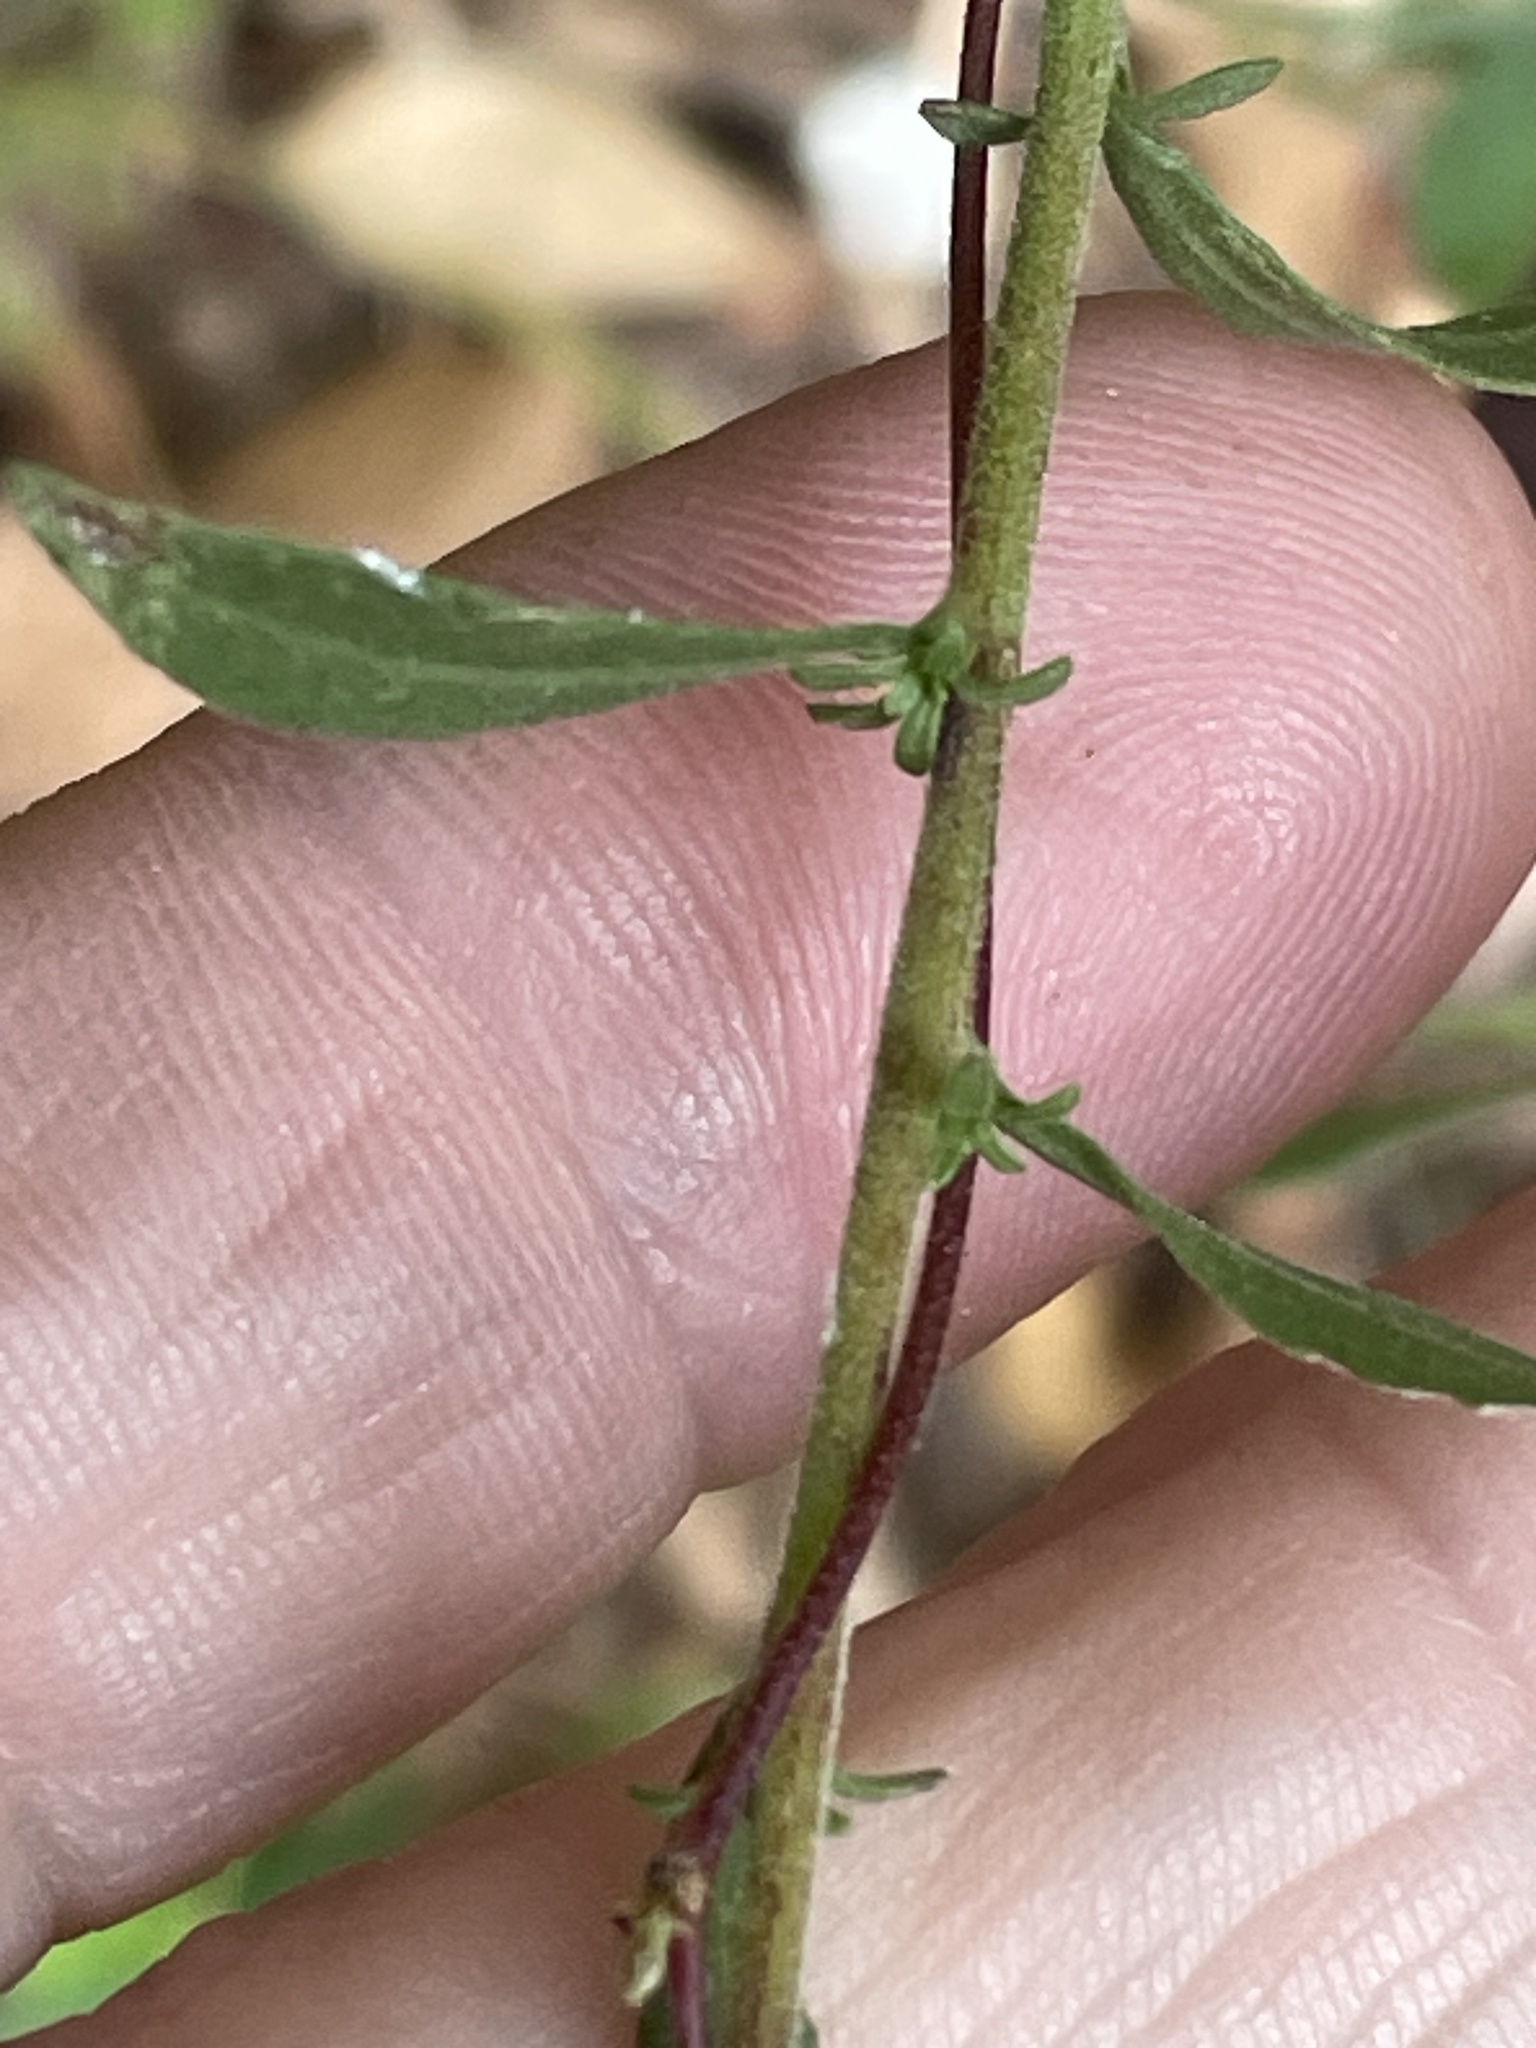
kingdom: Plantae
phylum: Tracheophyta
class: Magnoliopsida
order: Fabales
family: Fabaceae
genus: Galactia
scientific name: Galactia regularis
